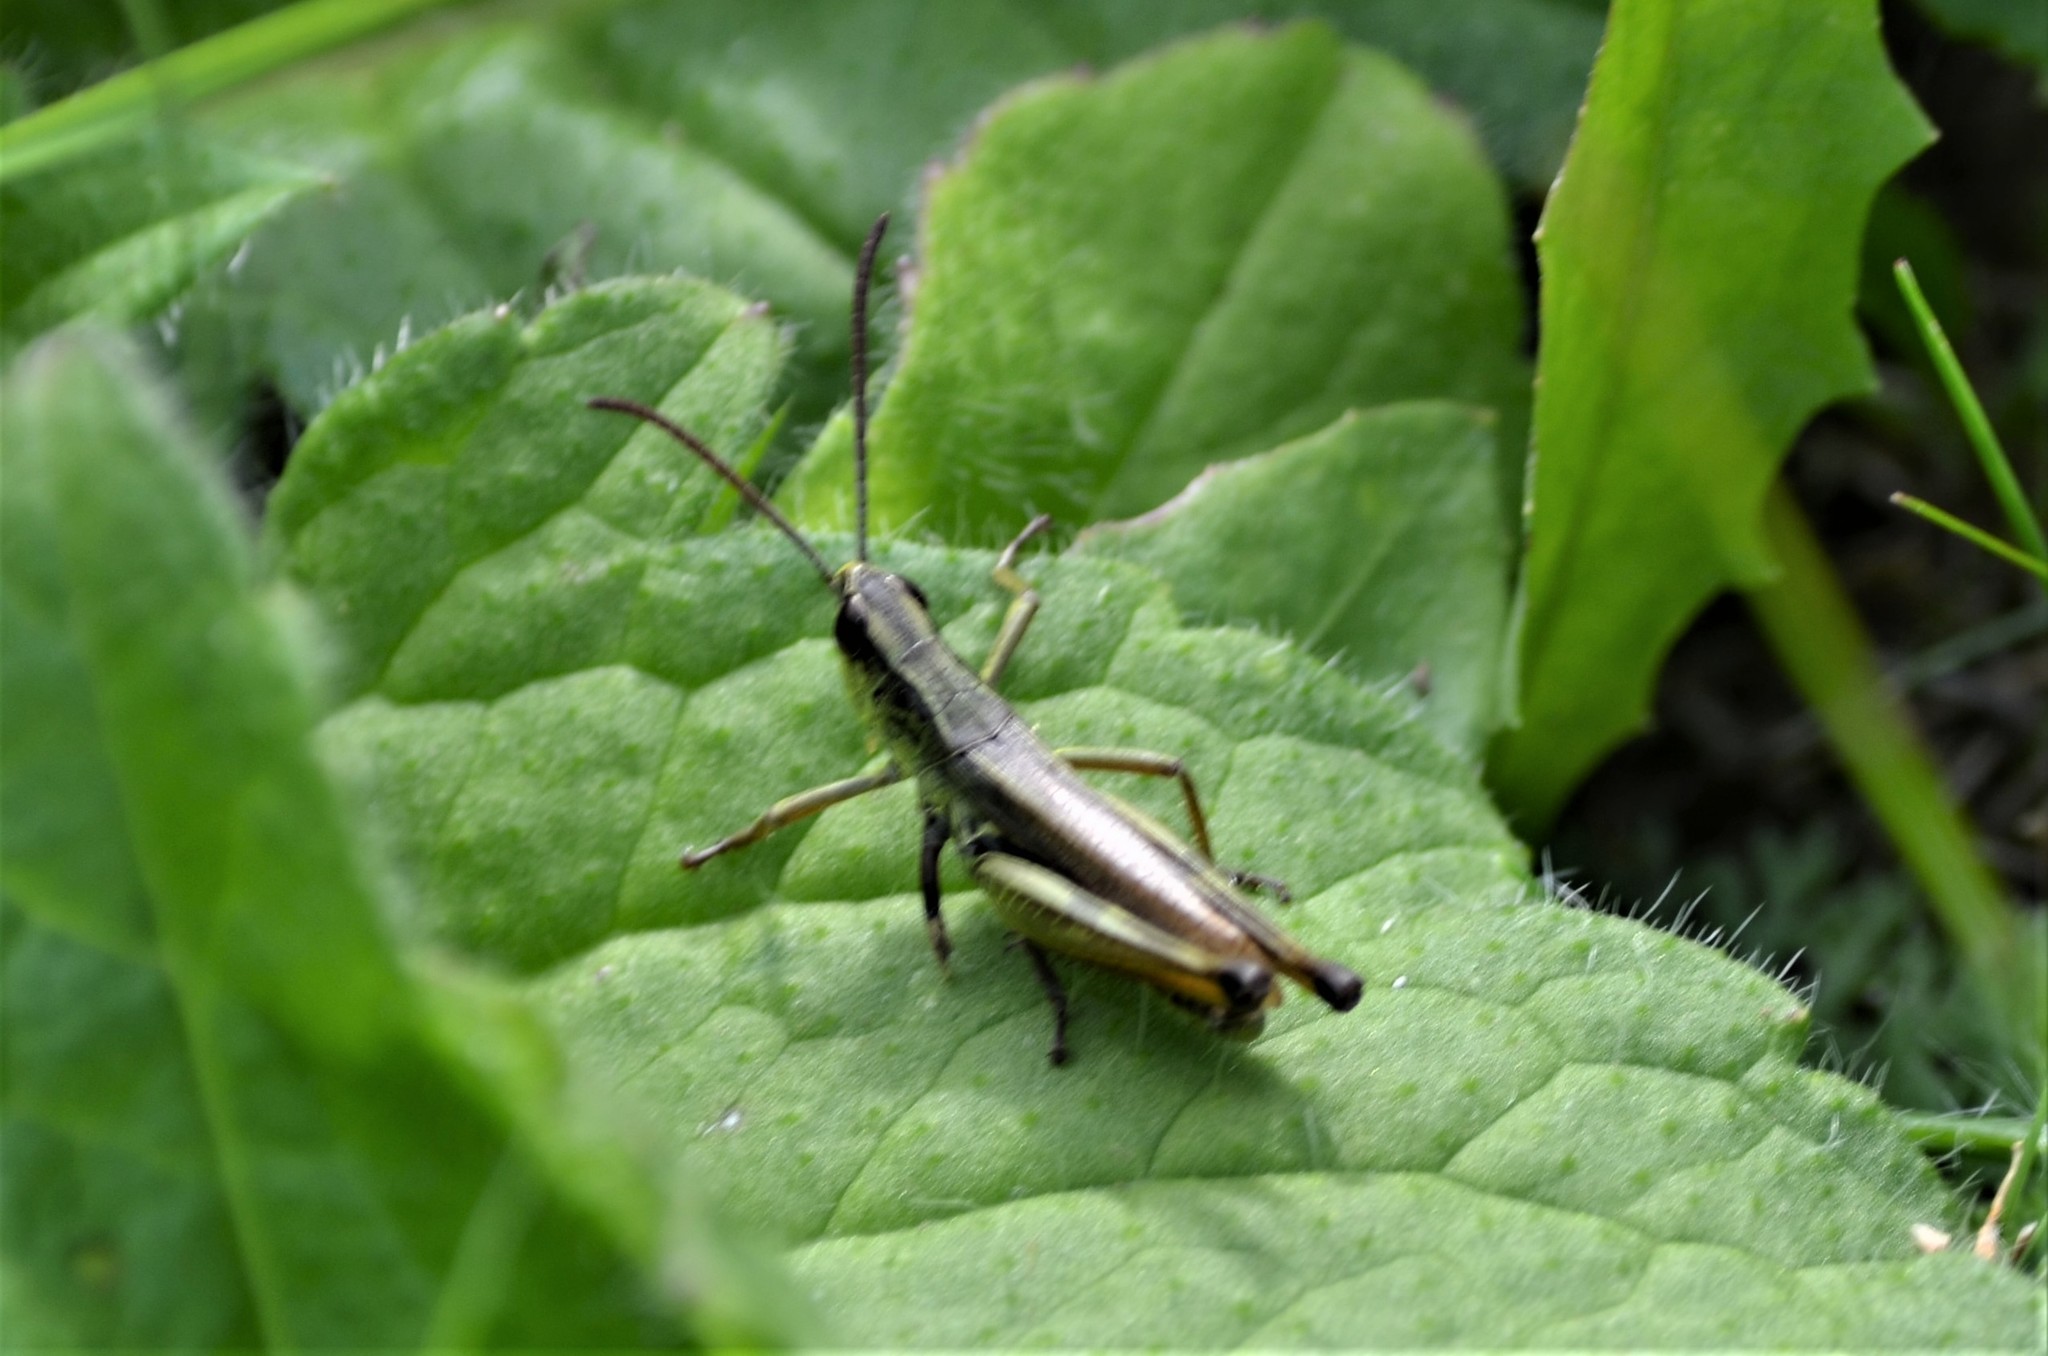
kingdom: Animalia
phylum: Arthropoda
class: Insecta
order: Orthoptera
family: Acrididae
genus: Pseudochorthippus
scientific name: Pseudochorthippus parallelus
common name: Meadow grasshopper
